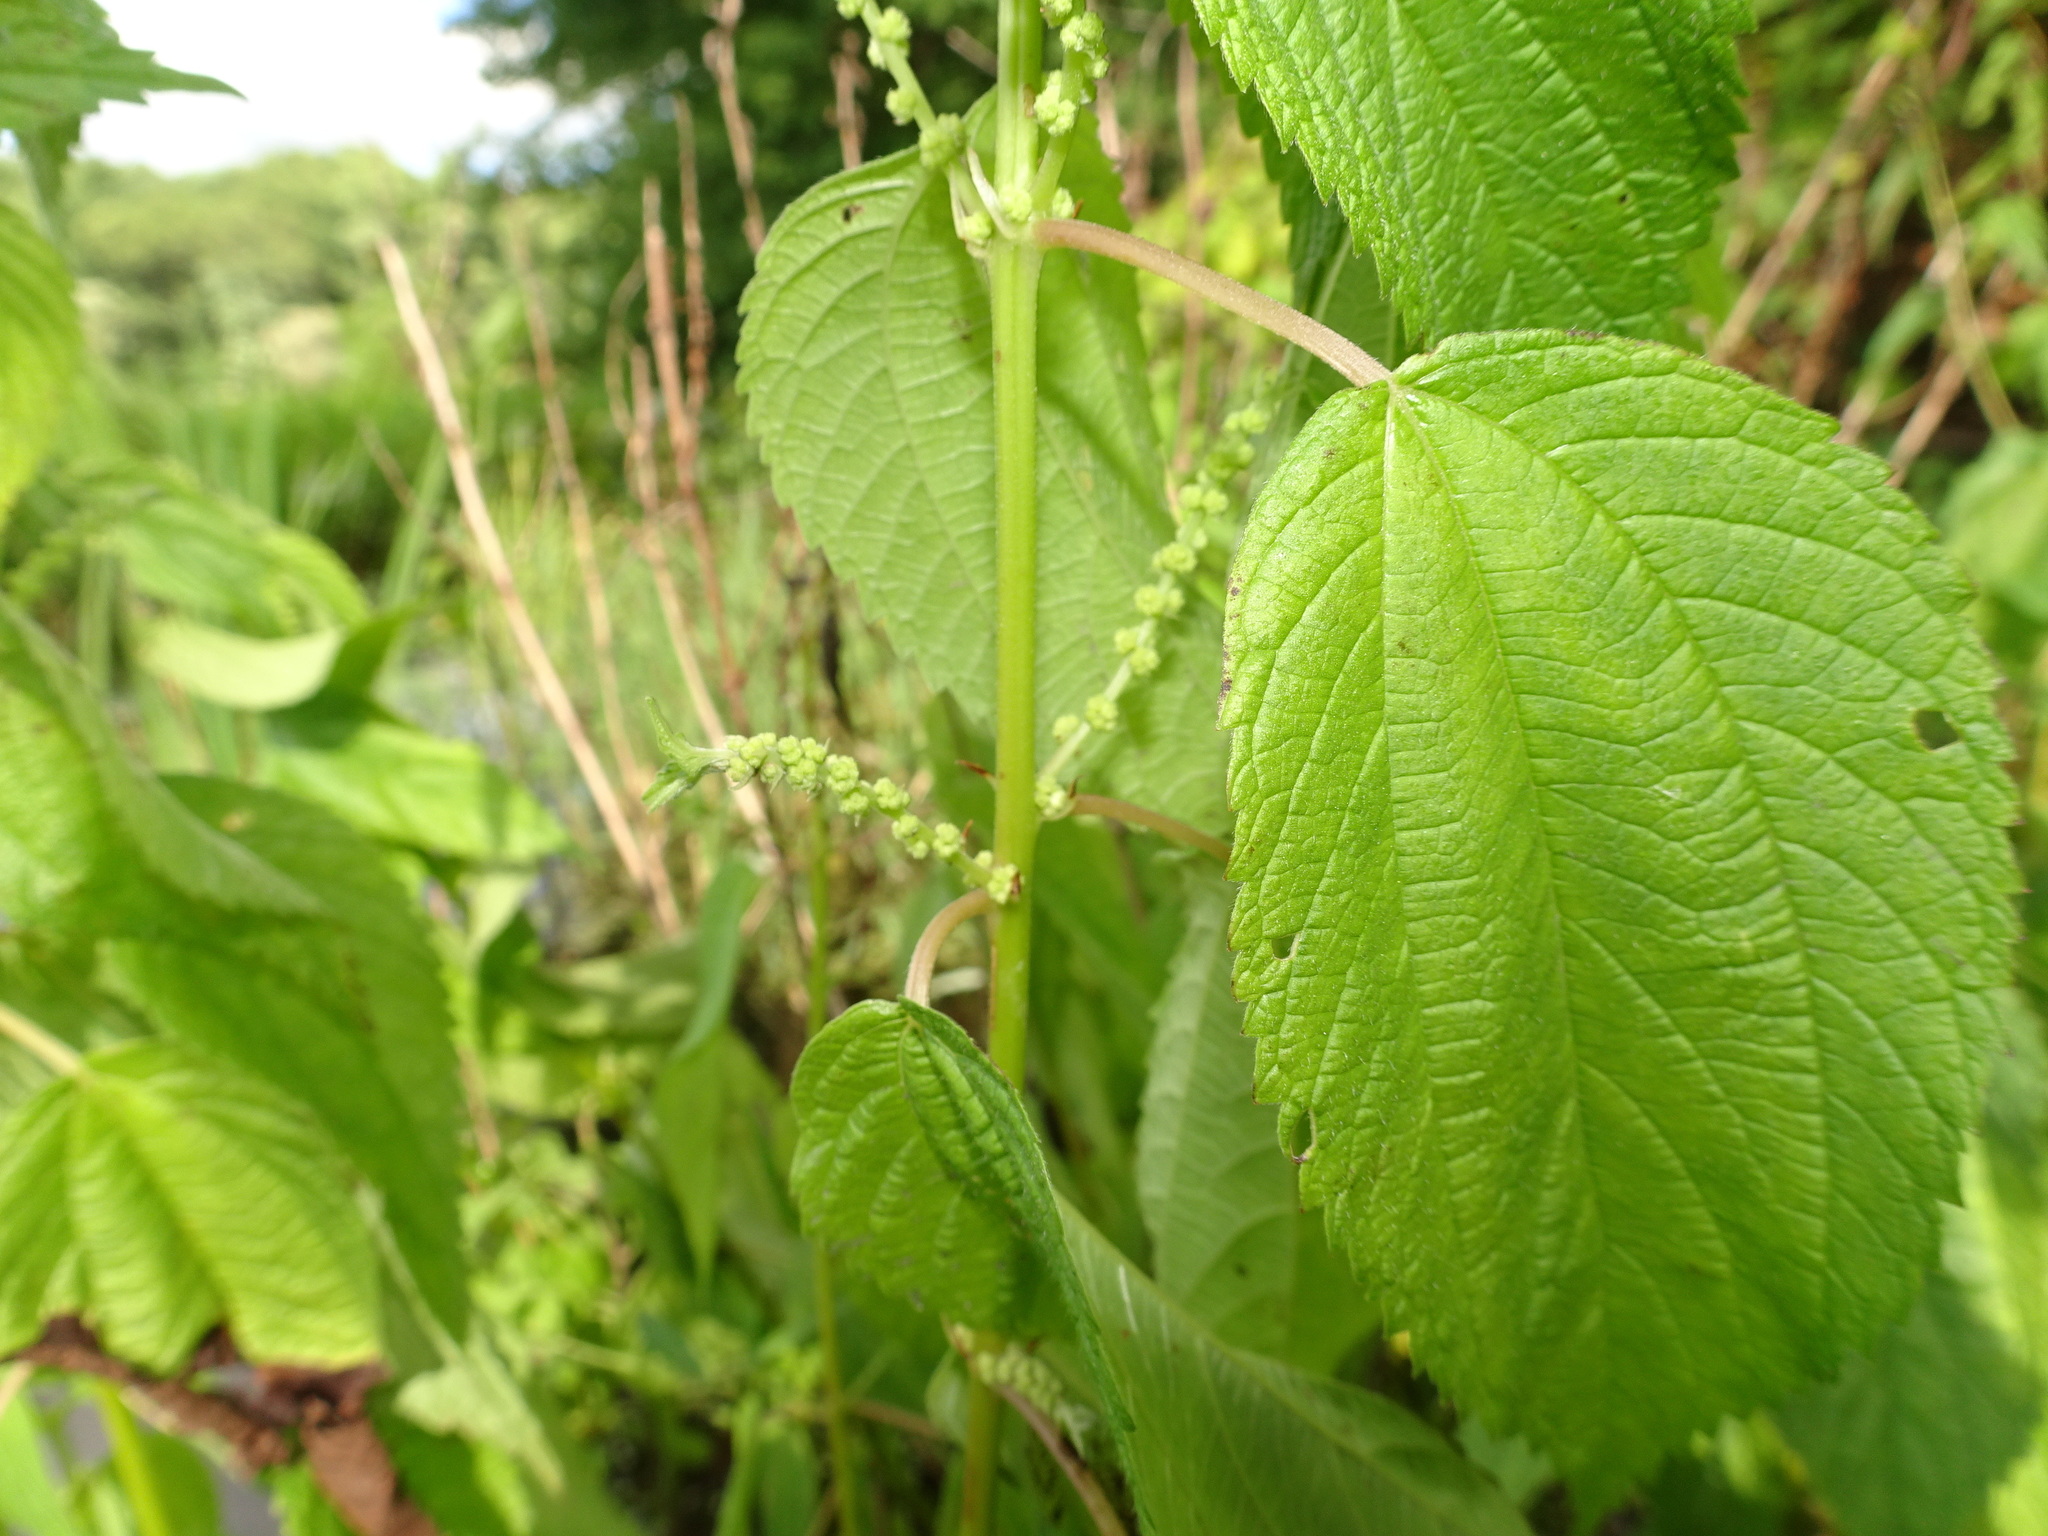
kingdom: Plantae
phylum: Tracheophyta
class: Magnoliopsida
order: Rosales
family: Urticaceae
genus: Boehmeria
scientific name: Boehmeria cylindrica
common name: Bog-hemp
